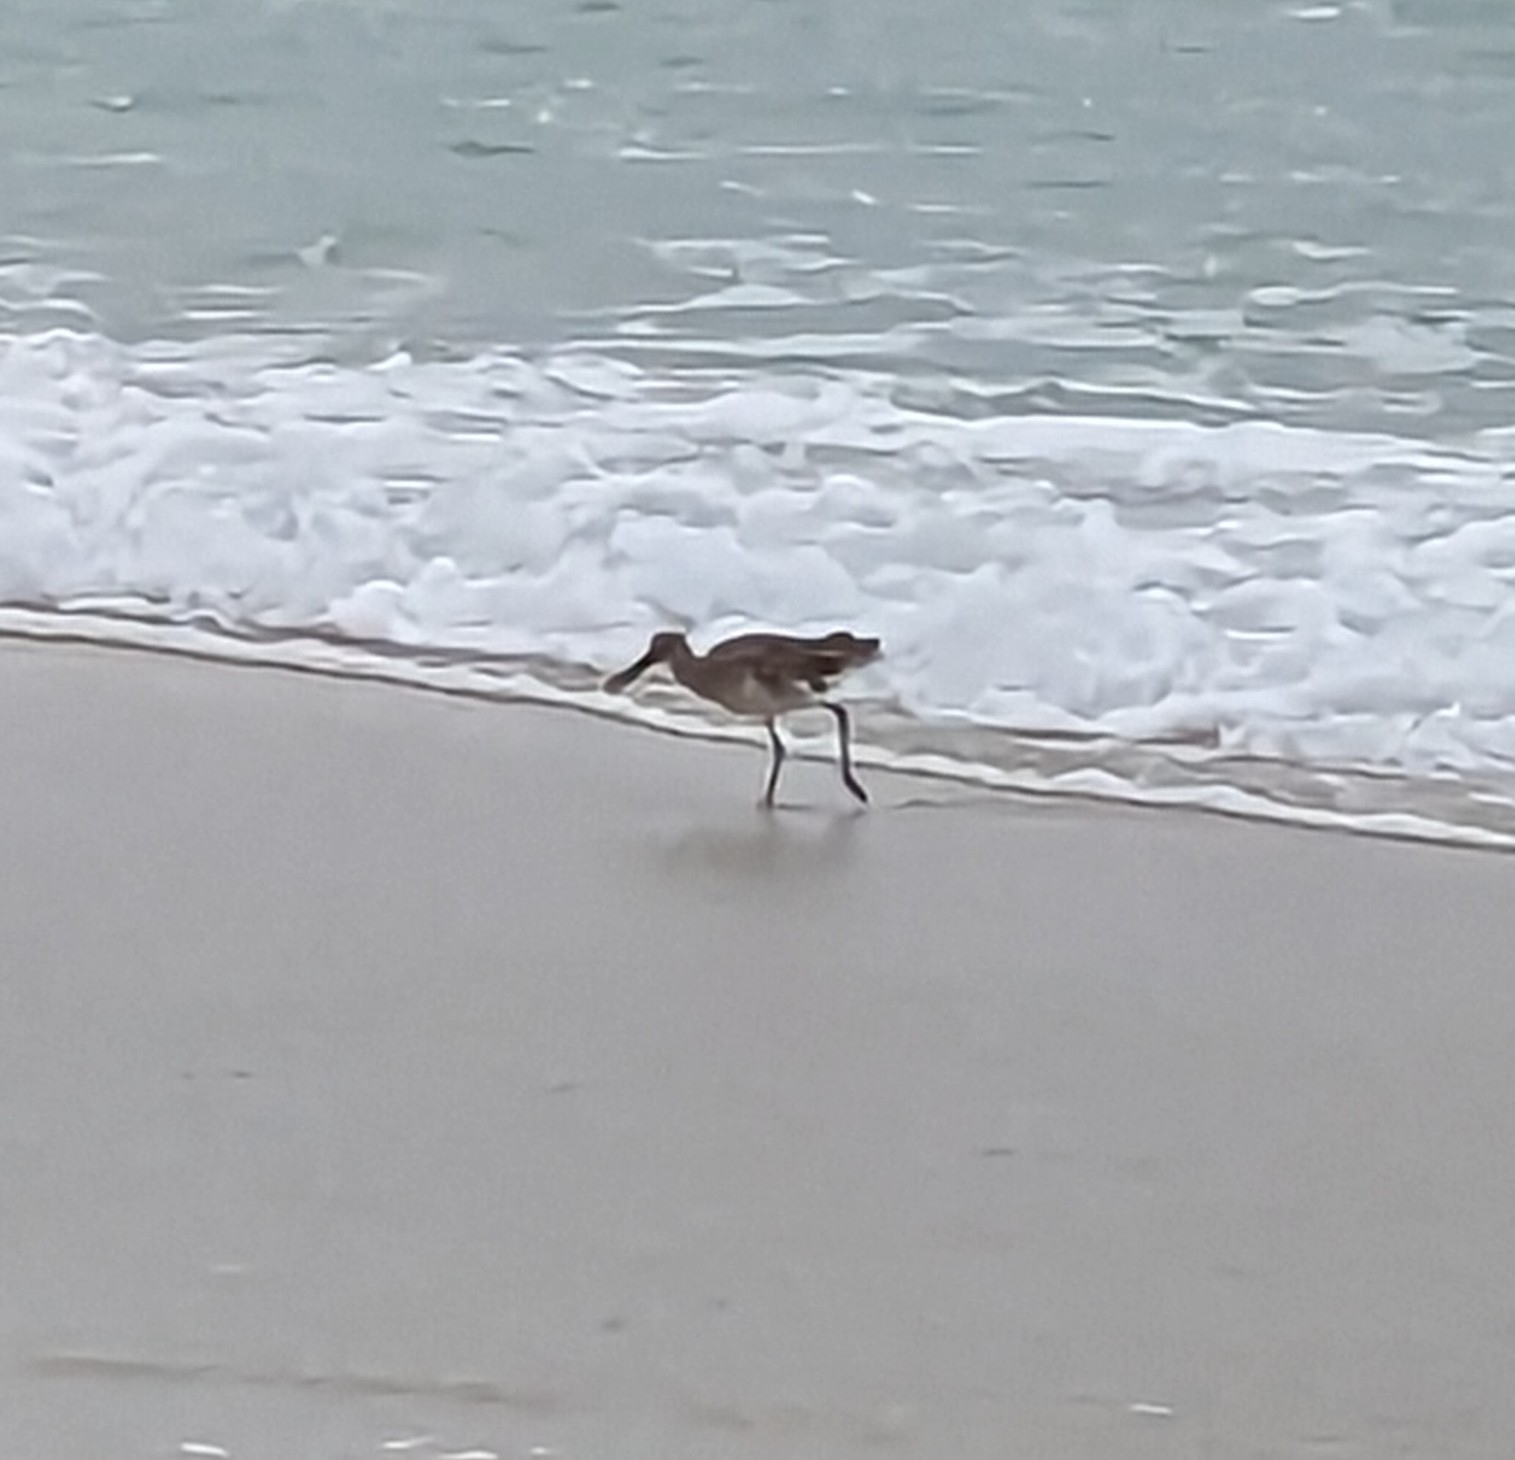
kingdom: Animalia
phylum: Chordata
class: Aves
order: Charadriiformes
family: Scolopacidae
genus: Tringa
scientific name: Tringa semipalmata
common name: Willet
